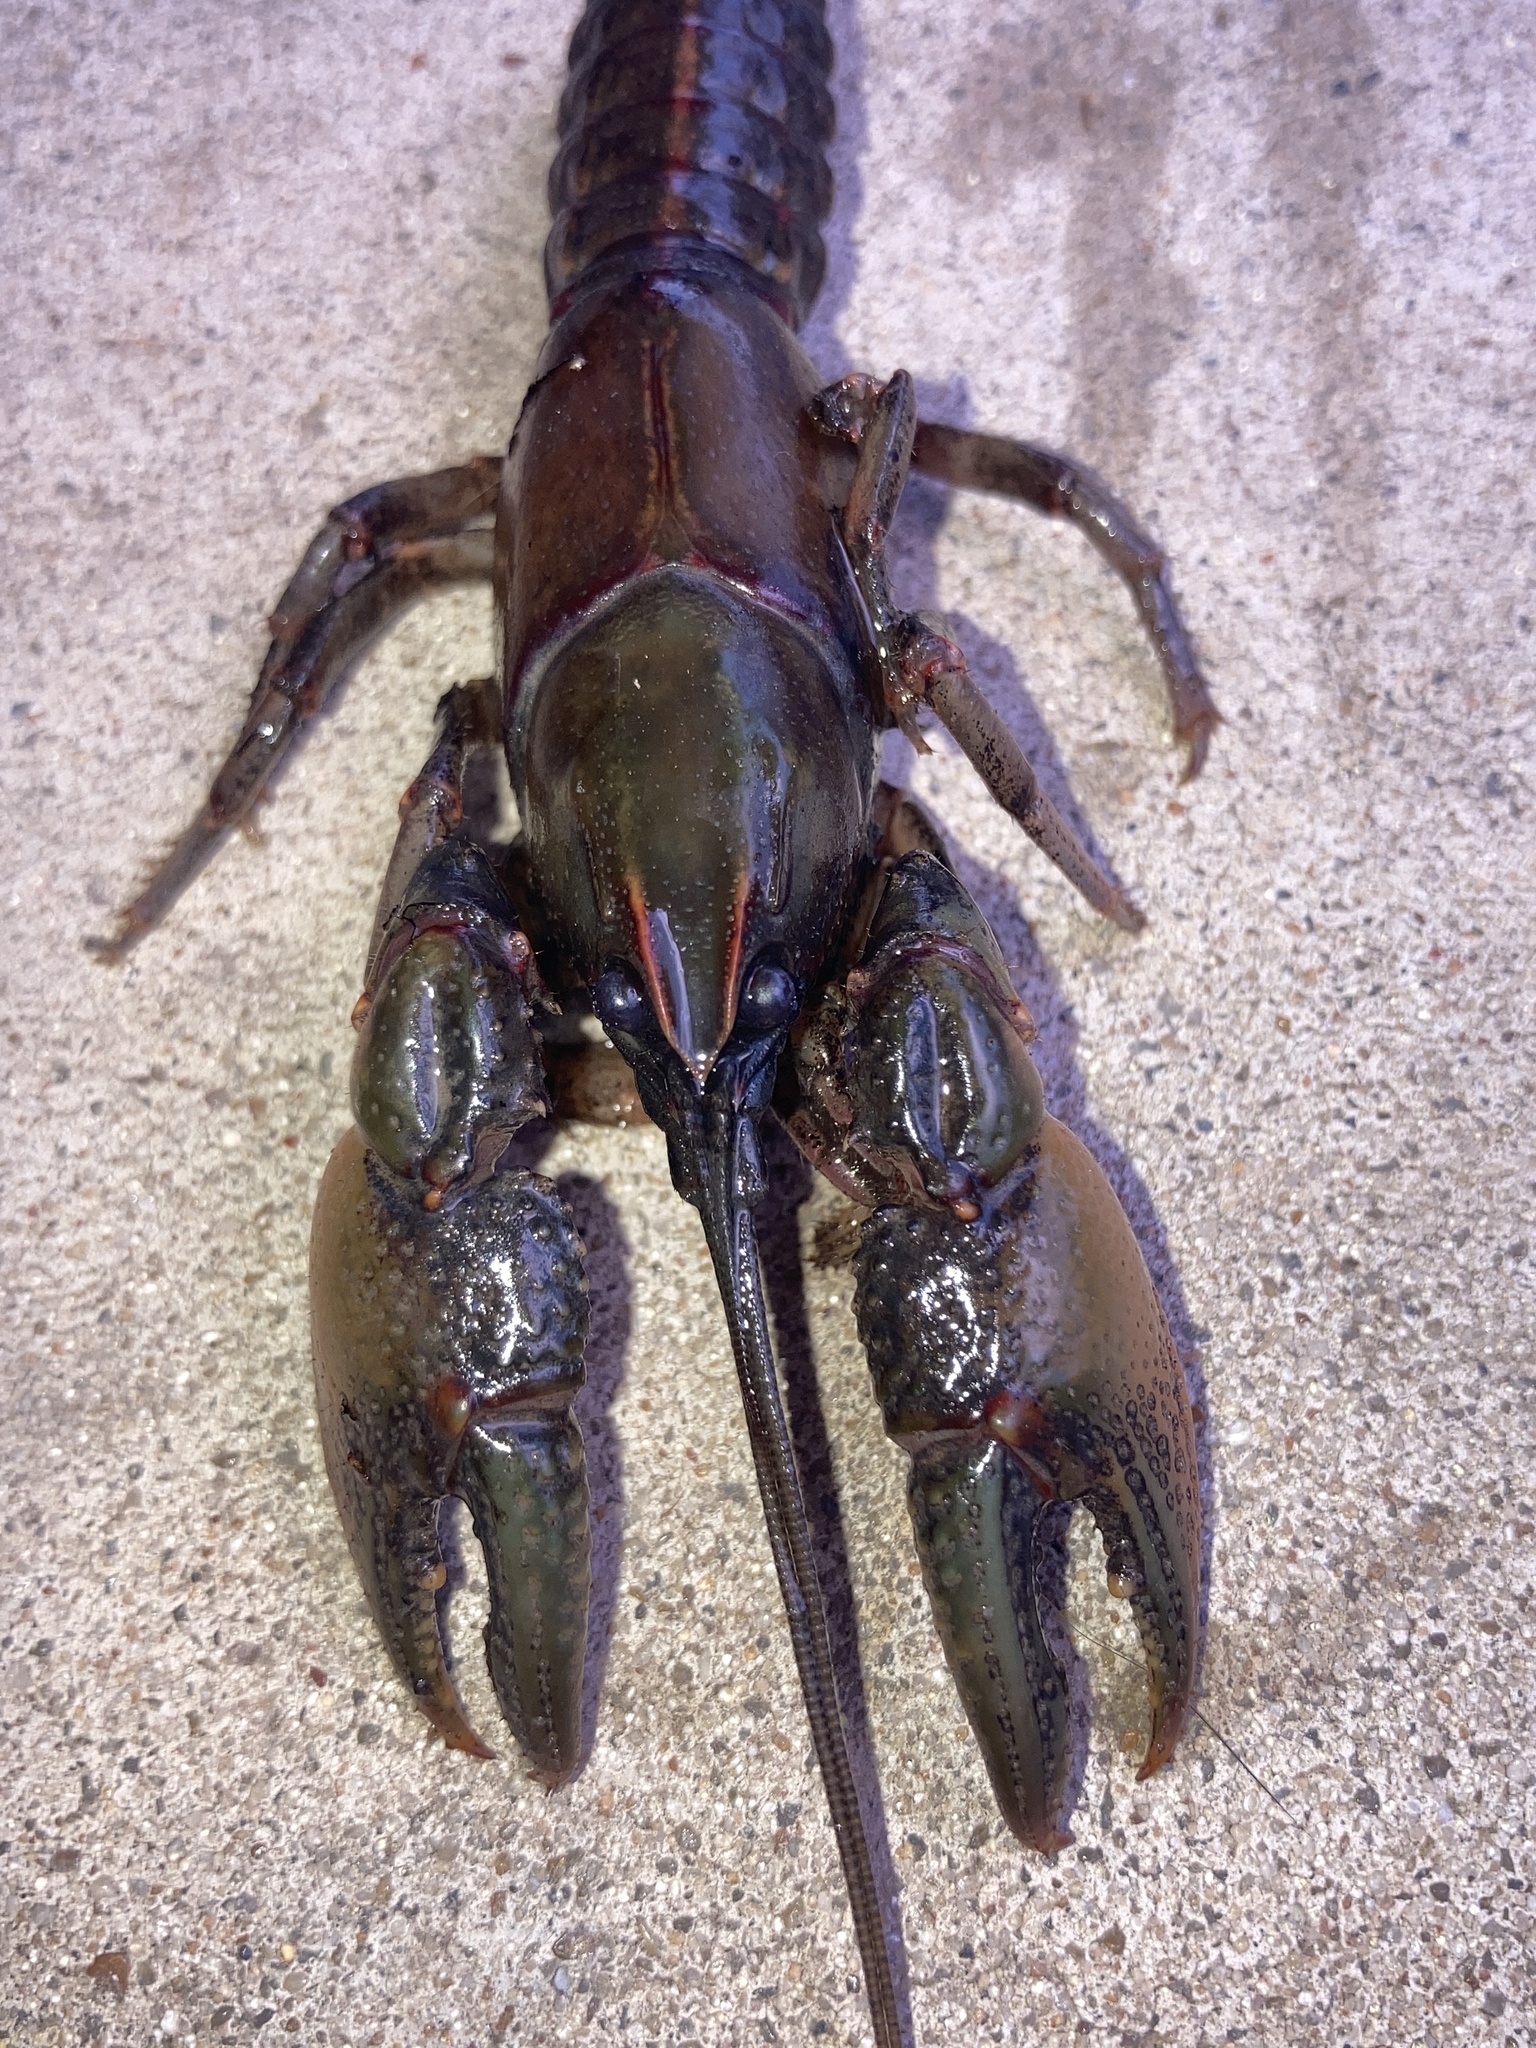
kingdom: Animalia
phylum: Arthropoda
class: Malacostraca
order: Decapoda
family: Cambaridae
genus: Lacunicambarus
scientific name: Lacunicambarus ludovicianus
